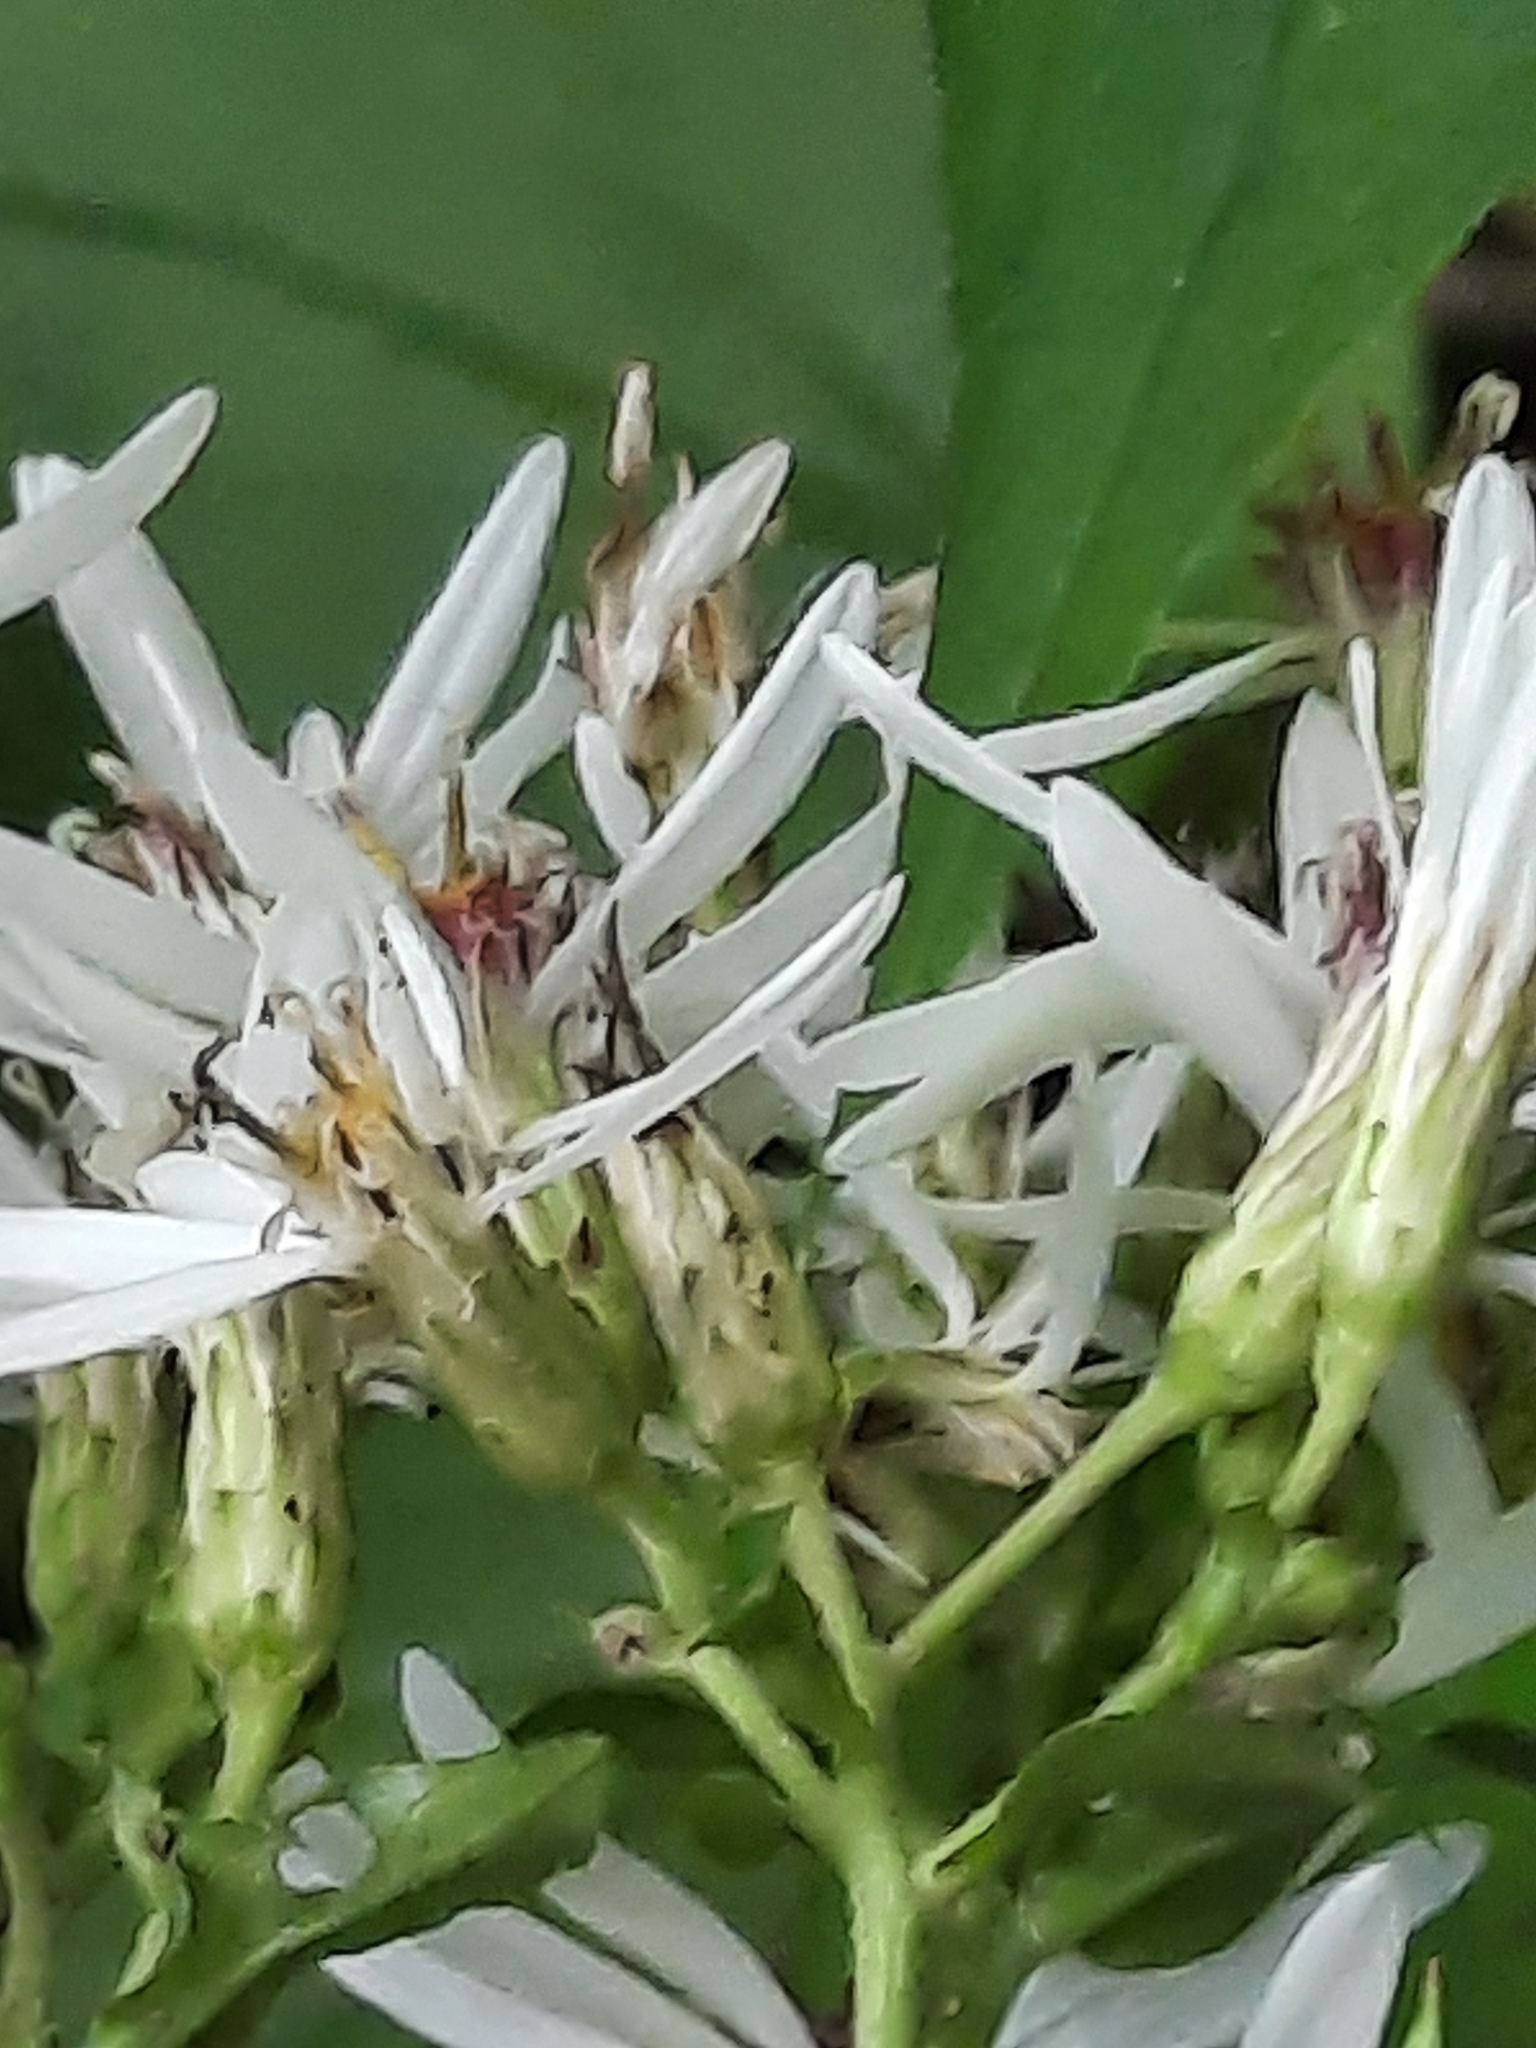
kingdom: Plantae
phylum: Tracheophyta
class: Magnoliopsida
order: Asterales
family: Asteraceae
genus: Eurybia
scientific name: Eurybia divaricata
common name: White wood aster
